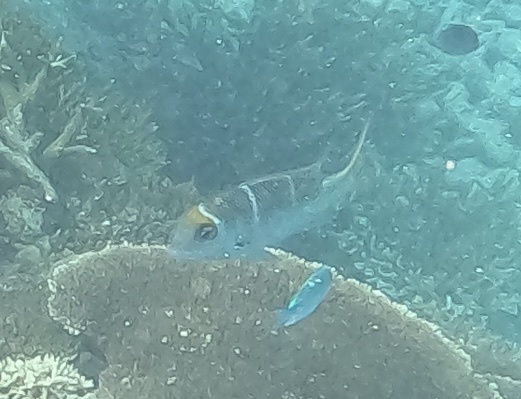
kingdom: Animalia
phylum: Chordata
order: Perciformes
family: Lethrinidae
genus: Monotaxis
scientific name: Monotaxis heterodon
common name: Redfin emperor
